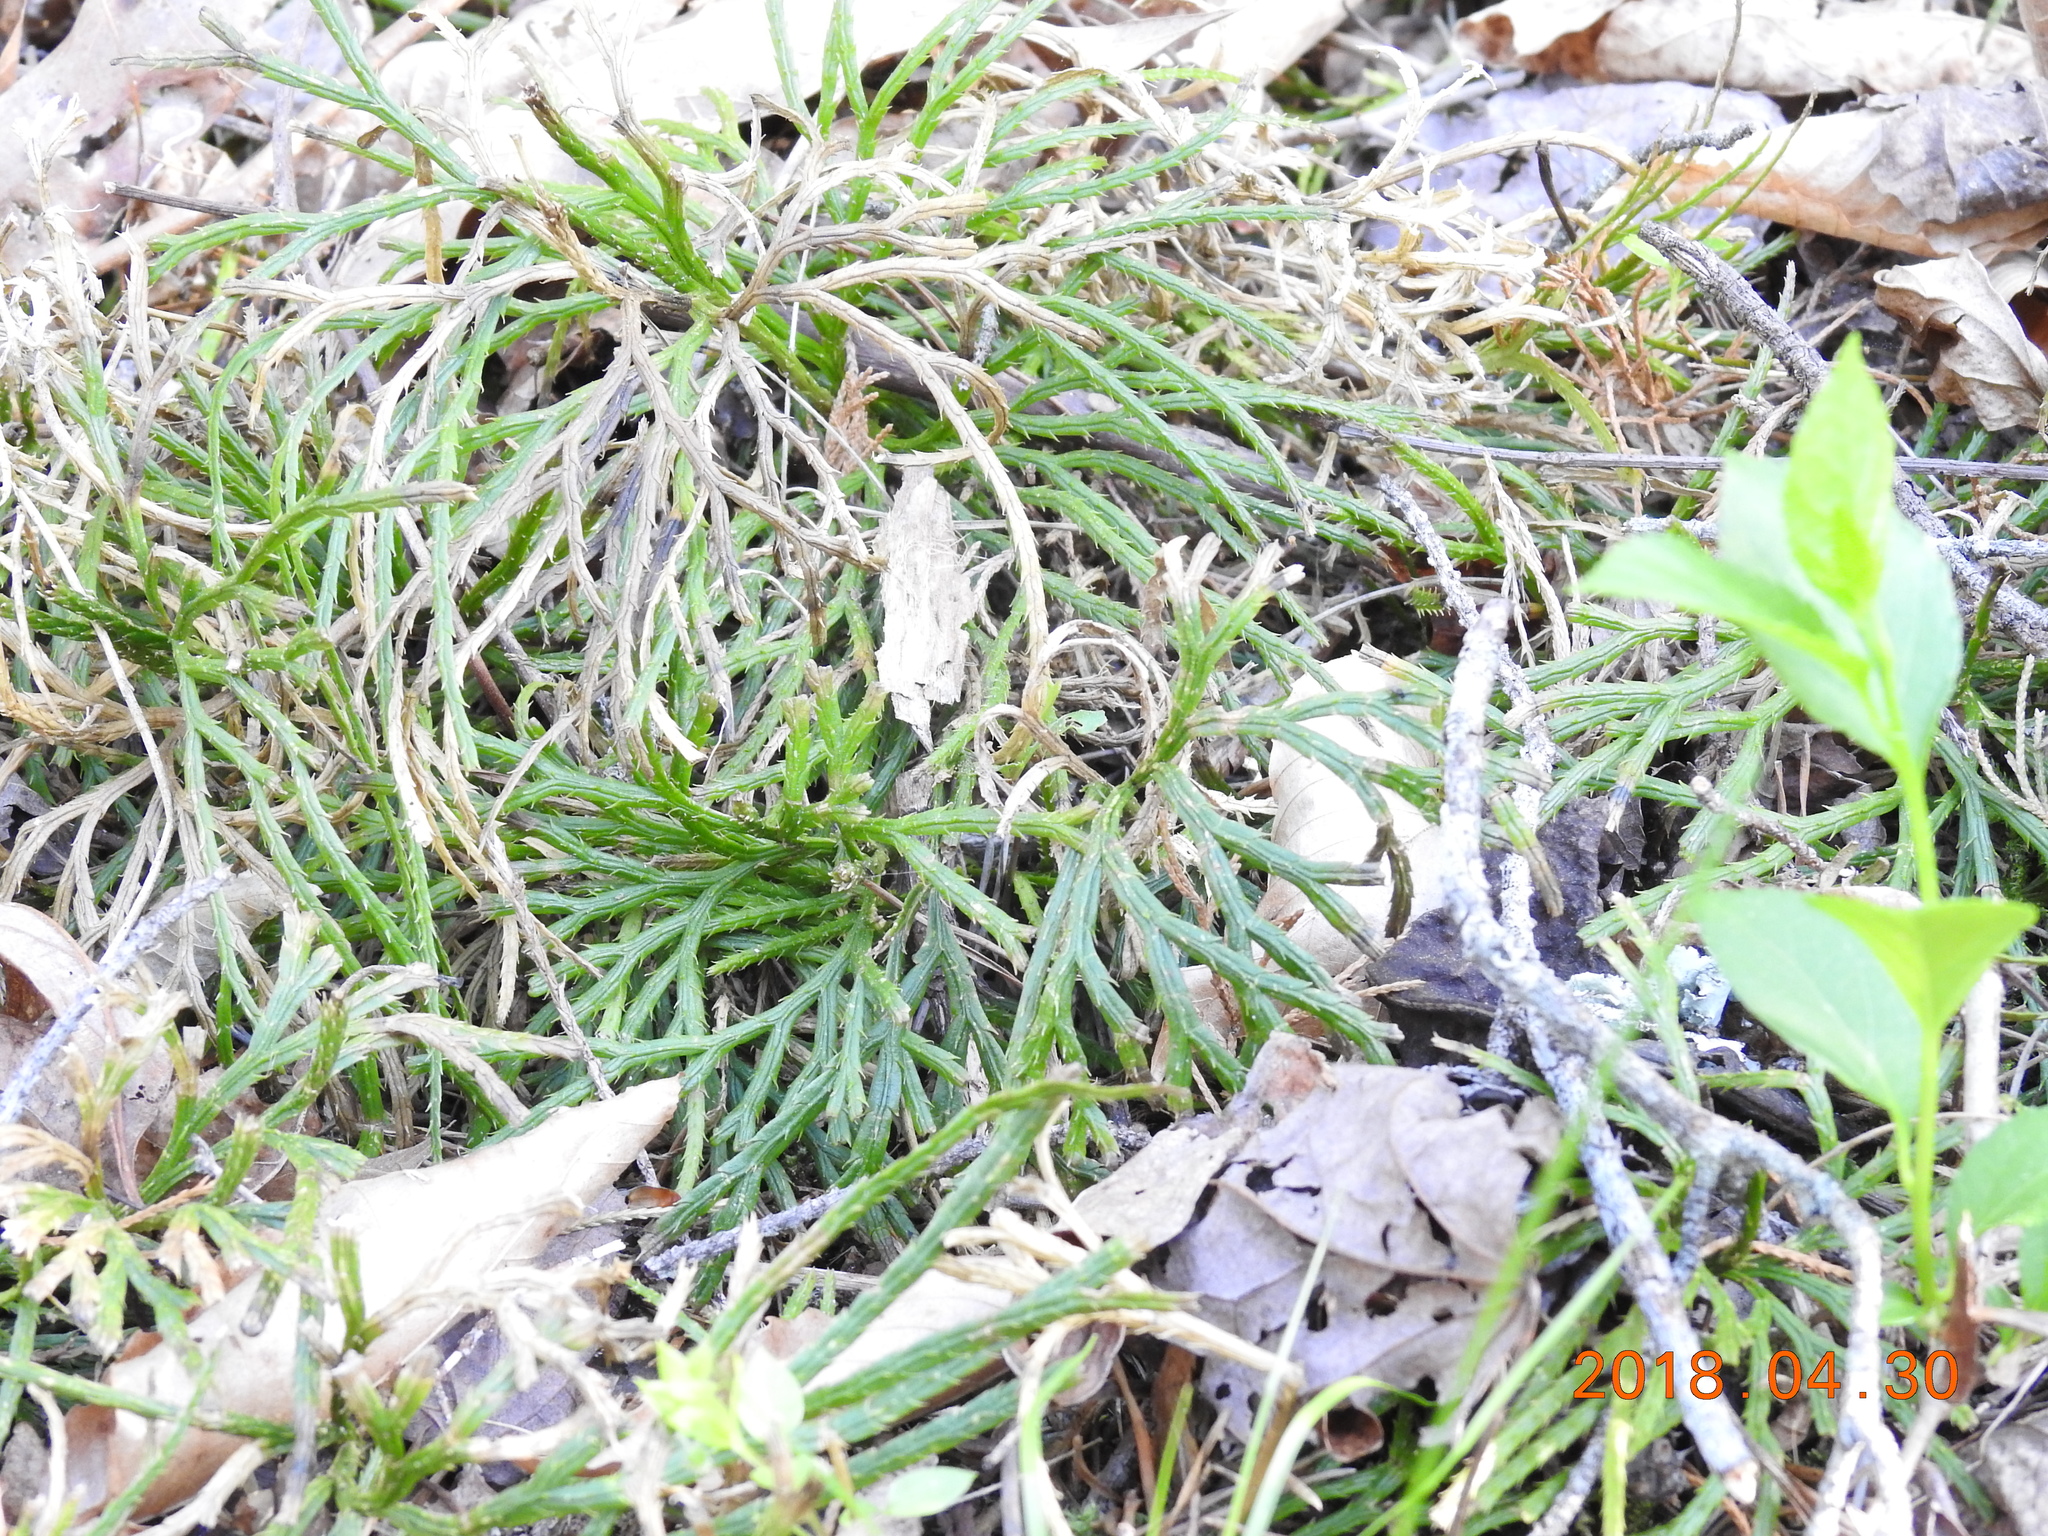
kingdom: Plantae
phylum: Tracheophyta
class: Lycopodiopsida
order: Lycopodiales
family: Lycopodiaceae
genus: Diphasiastrum
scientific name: Diphasiastrum digitatum
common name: Southern running-pine
